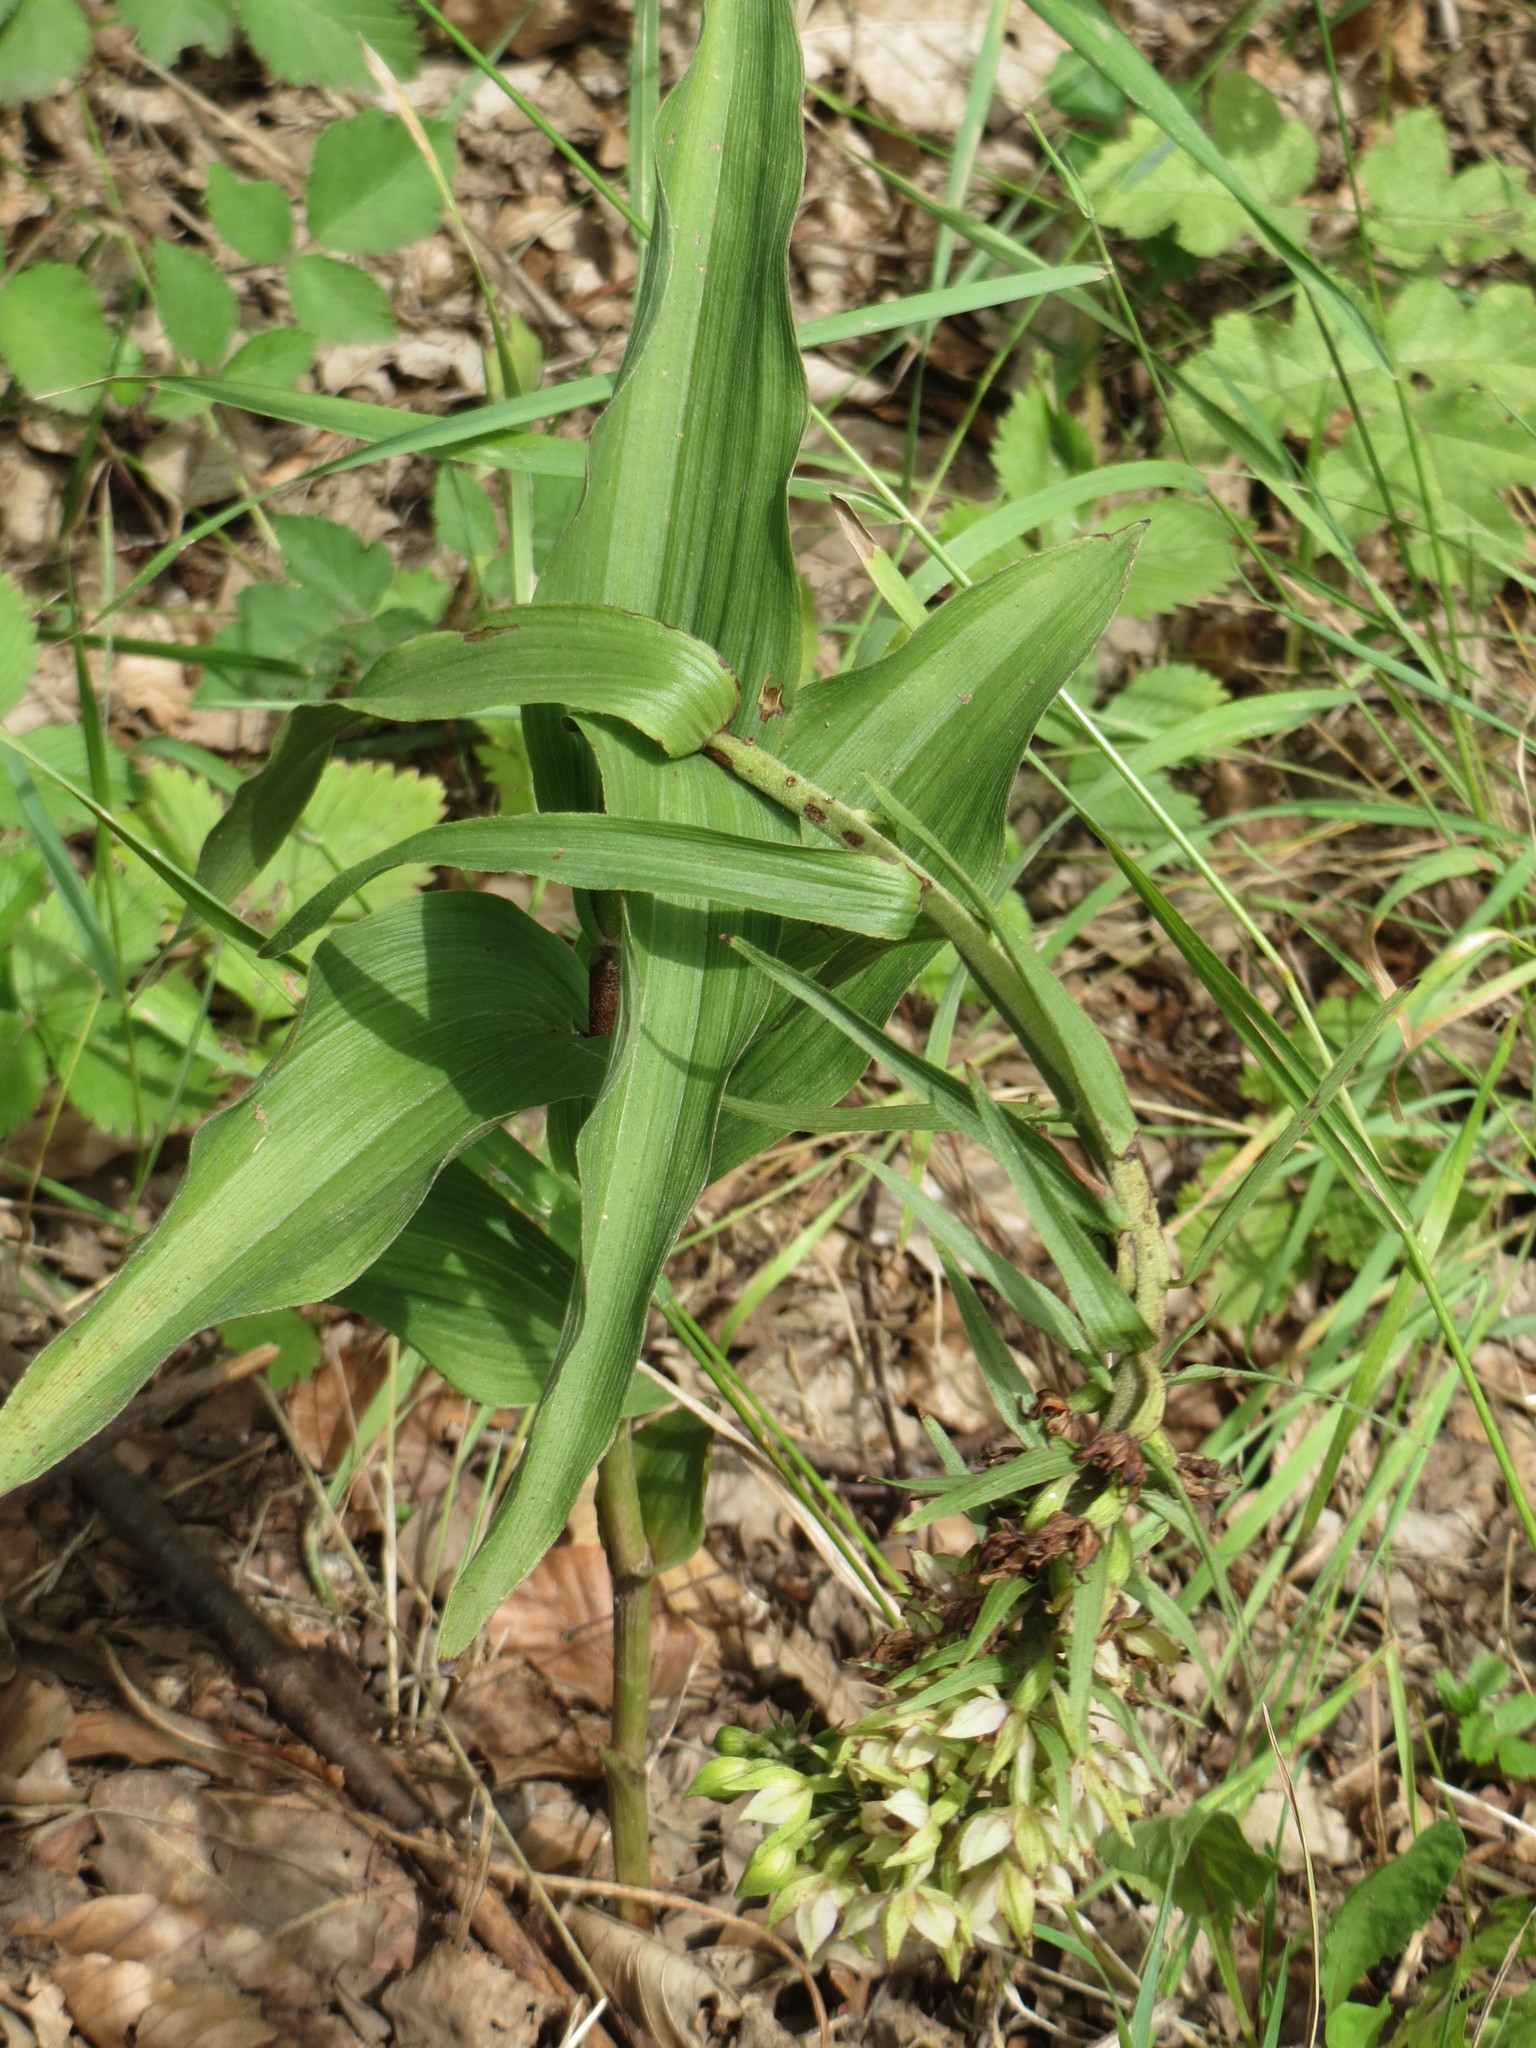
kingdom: Plantae
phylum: Tracheophyta
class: Liliopsida
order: Asparagales
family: Orchidaceae
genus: Epipactis
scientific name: Epipactis helleborine
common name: Broad-leaved helleborine
